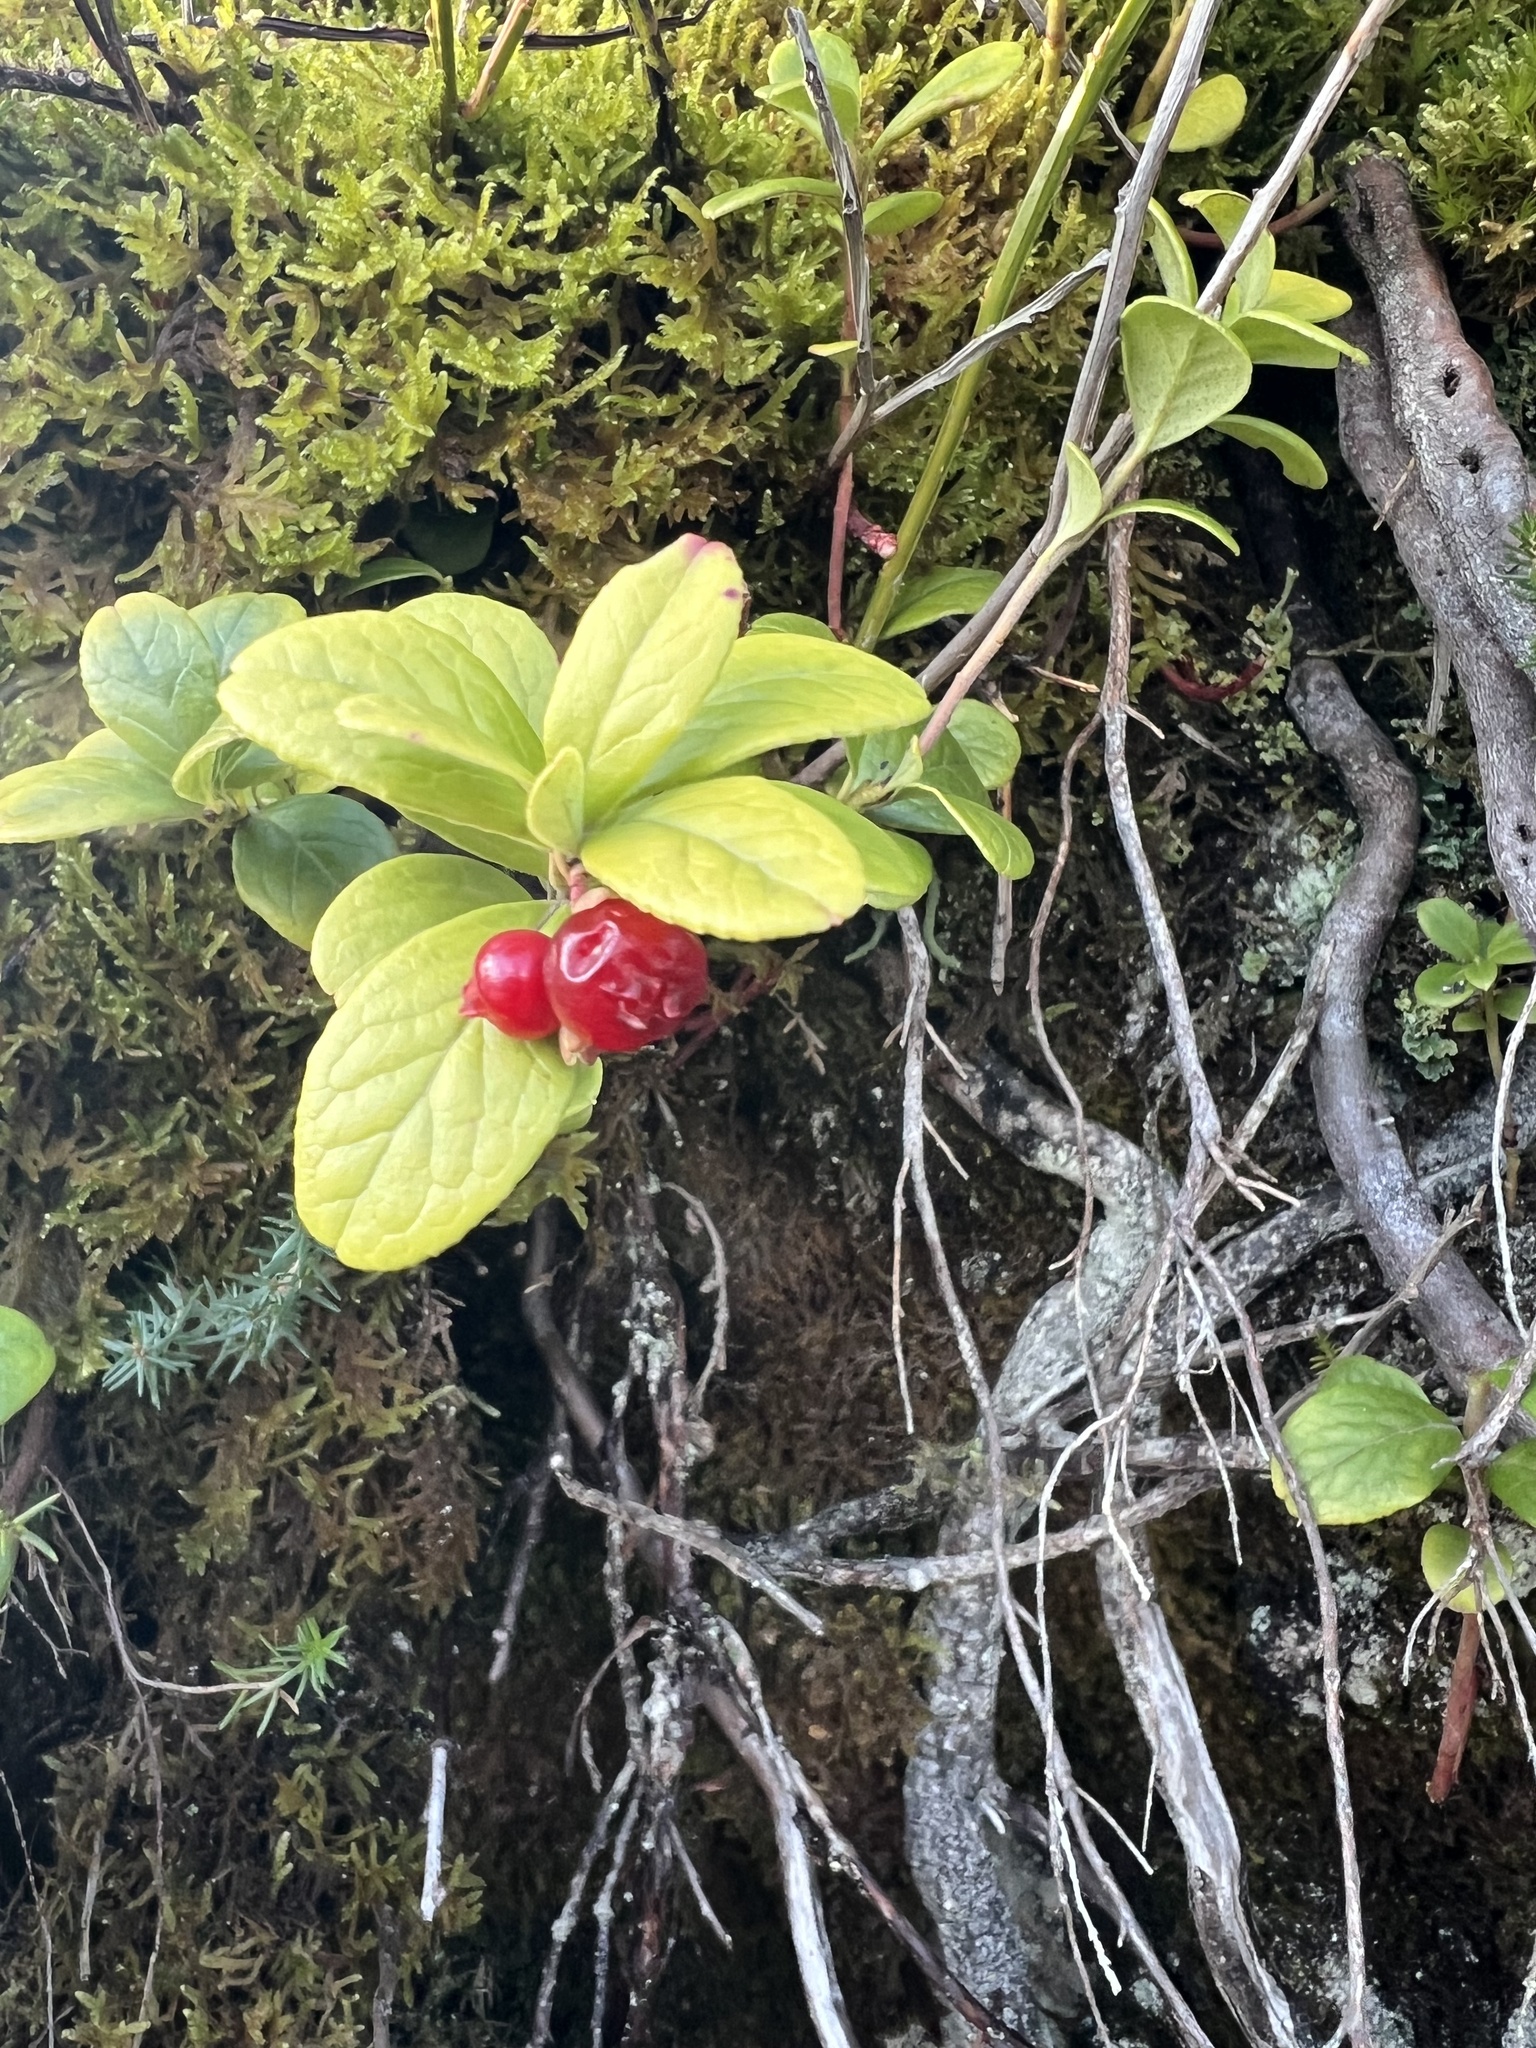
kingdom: Plantae
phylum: Tracheophyta
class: Magnoliopsida
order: Ericales
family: Ericaceae
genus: Vaccinium
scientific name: Vaccinium vitis-idaea
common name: Cowberry
